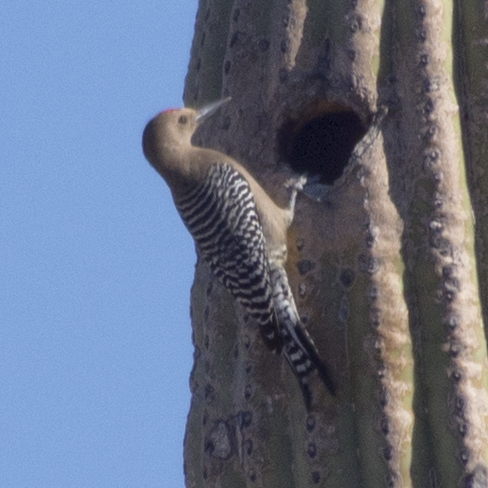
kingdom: Animalia
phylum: Chordata
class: Aves
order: Piciformes
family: Picidae
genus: Melanerpes
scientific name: Melanerpes uropygialis
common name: Gila woodpecker
